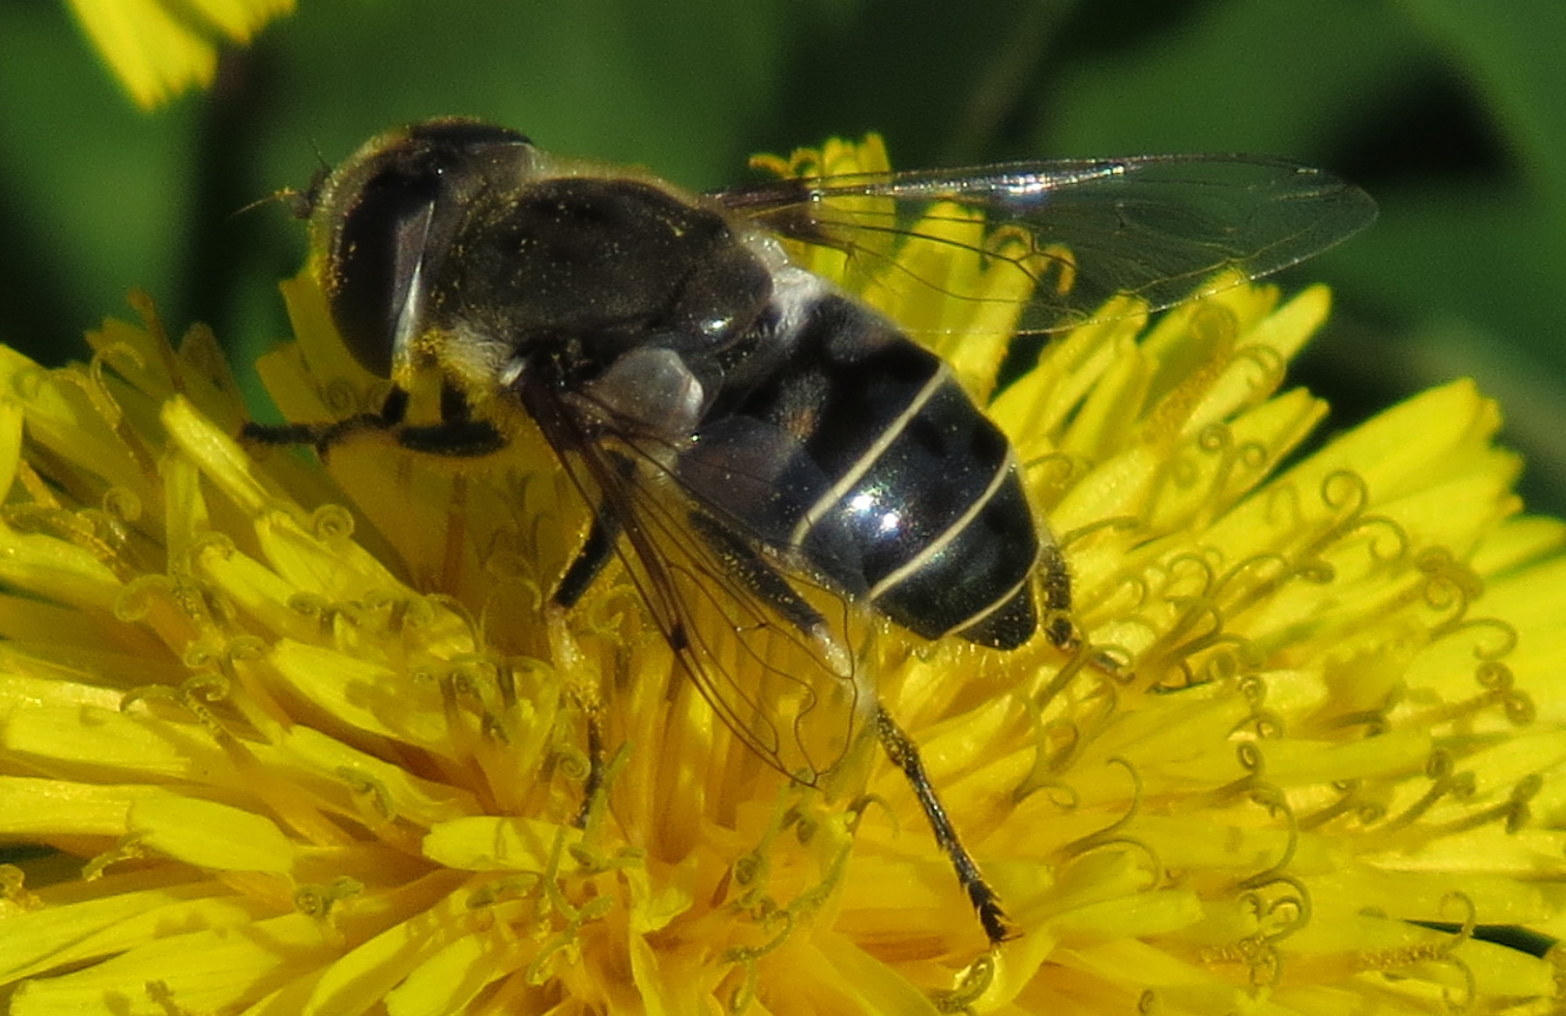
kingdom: Animalia
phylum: Arthropoda
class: Insecta
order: Diptera
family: Syrphidae
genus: Eristalis
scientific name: Eristalis dimidiata
